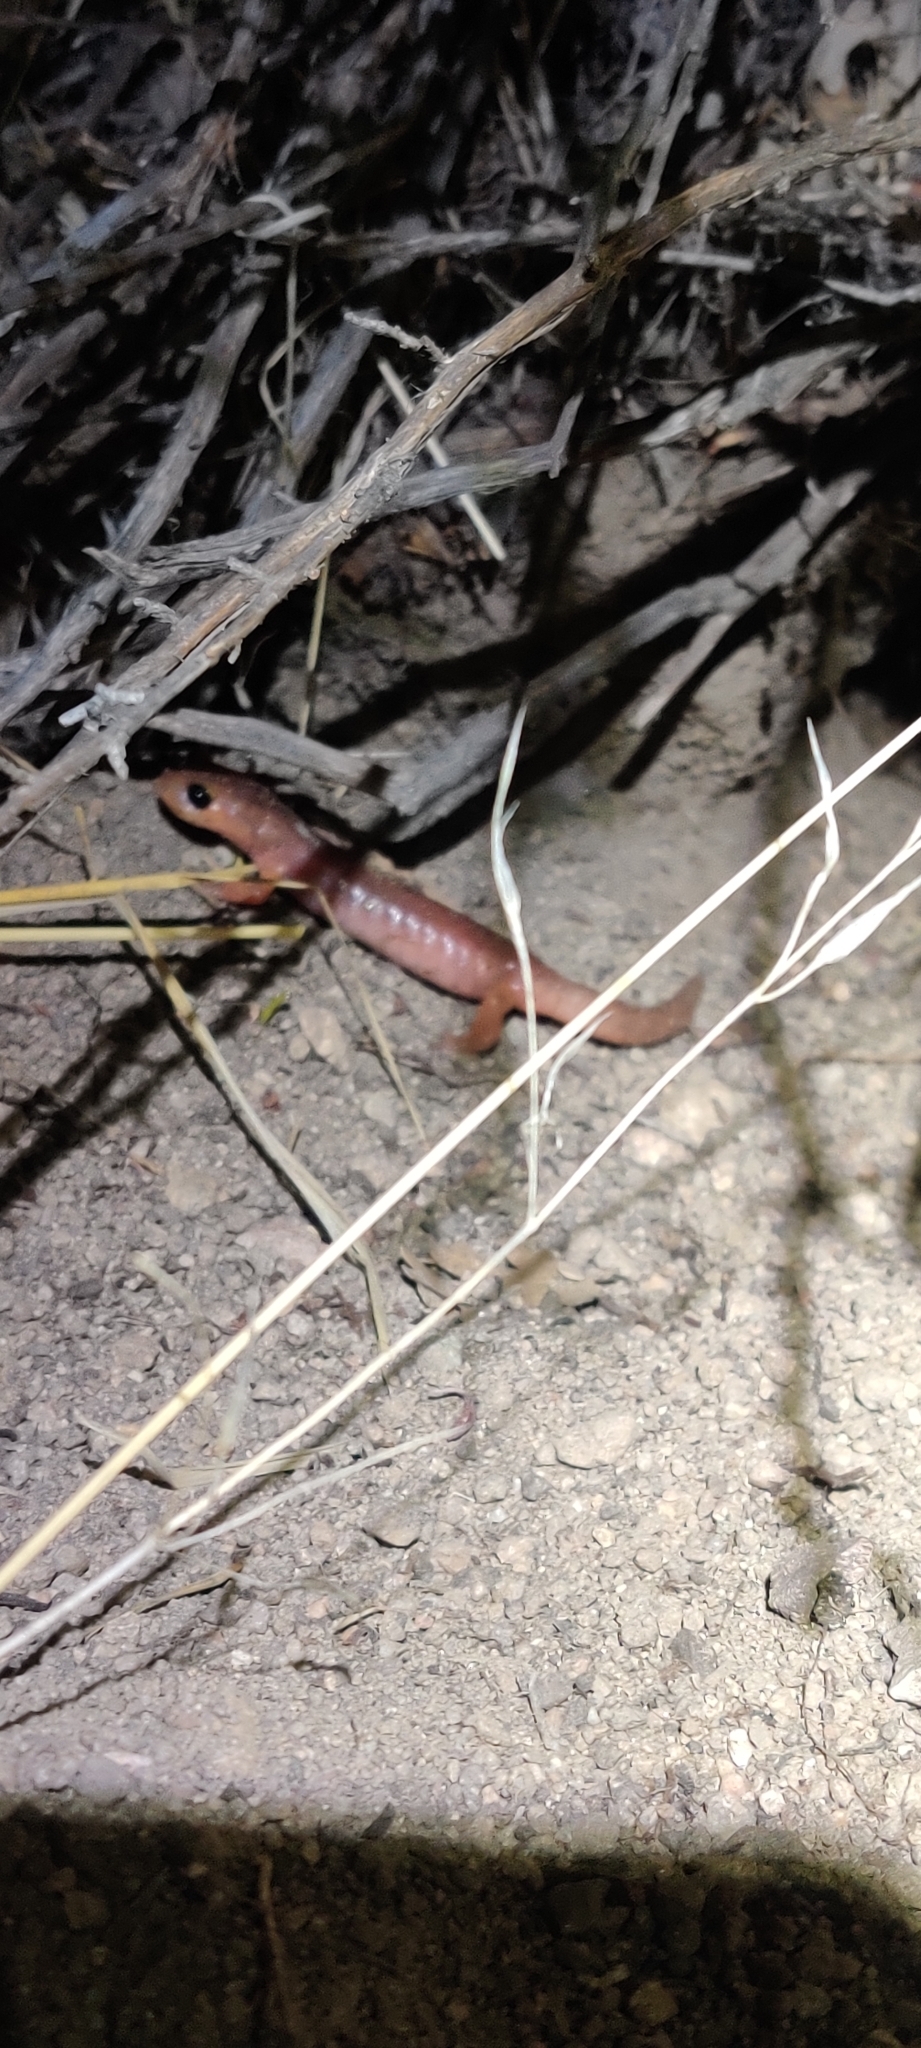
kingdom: Animalia
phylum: Chordata
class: Amphibia
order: Caudata
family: Plethodontidae
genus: Ensatina
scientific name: Ensatina eschscholtzii
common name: Ensatina
